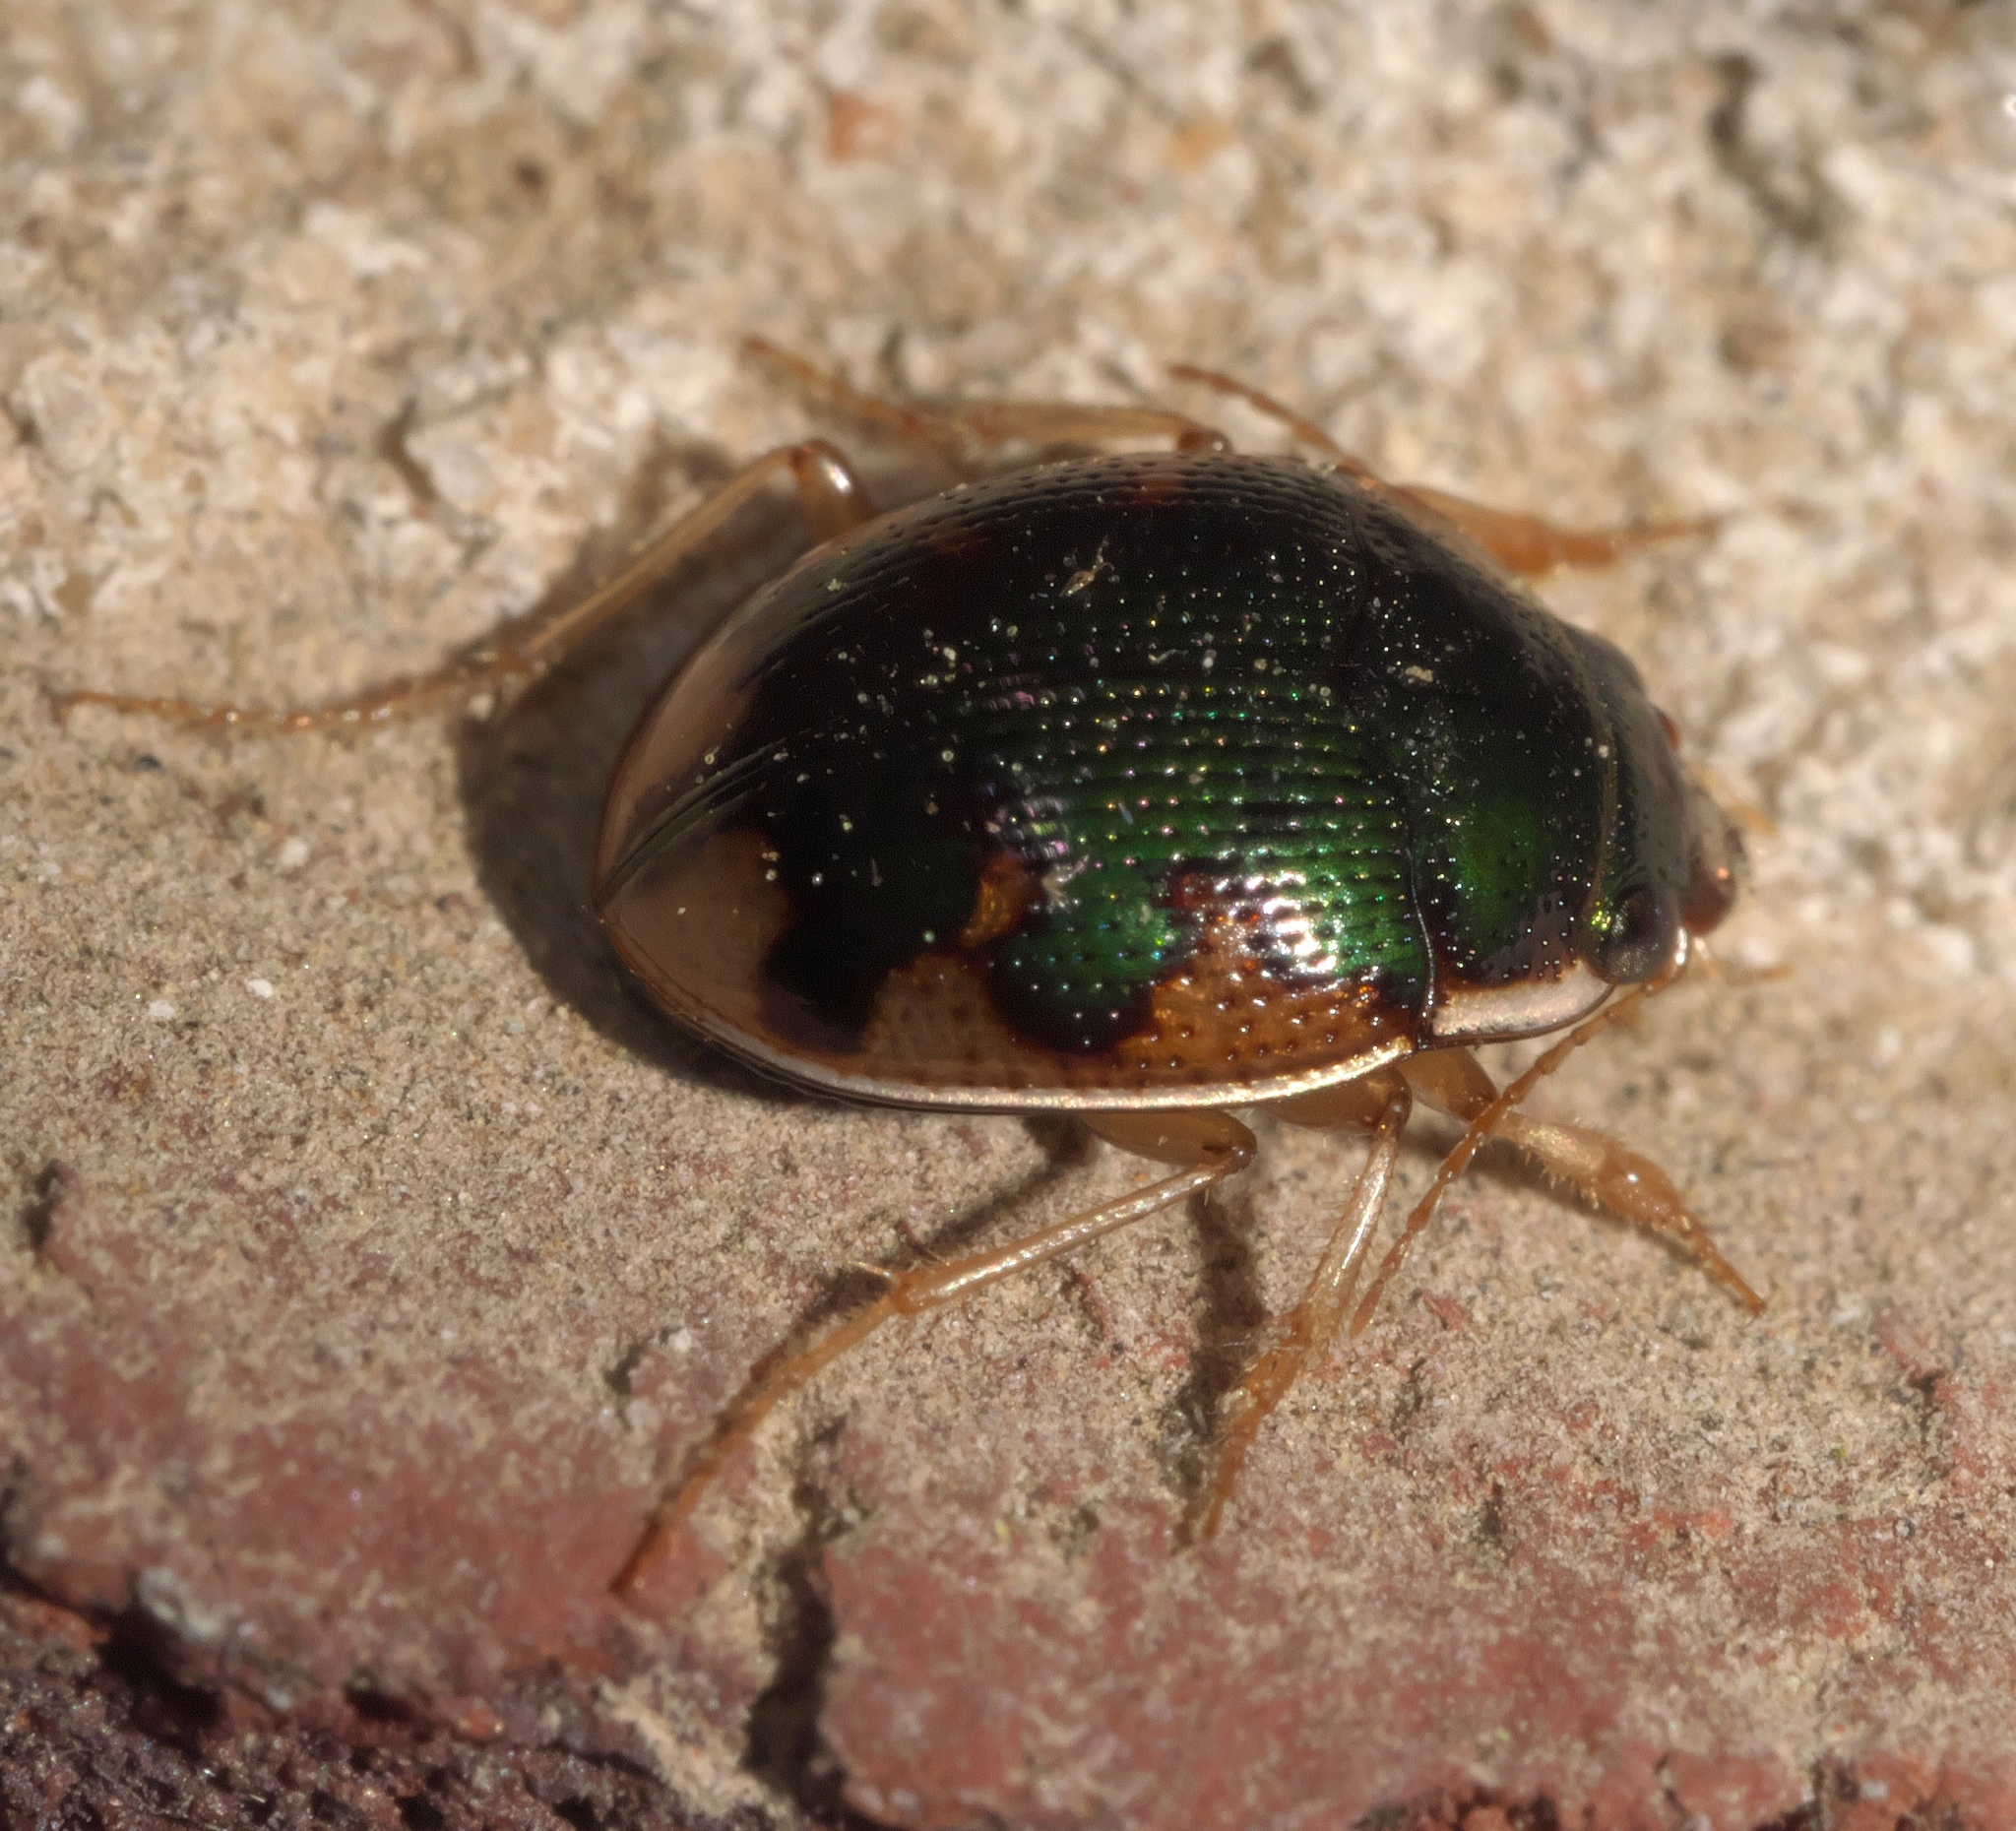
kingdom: Animalia
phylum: Arthropoda
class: Insecta
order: Coleoptera
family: Carabidae
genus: Omophron
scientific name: Omophron nitidum
